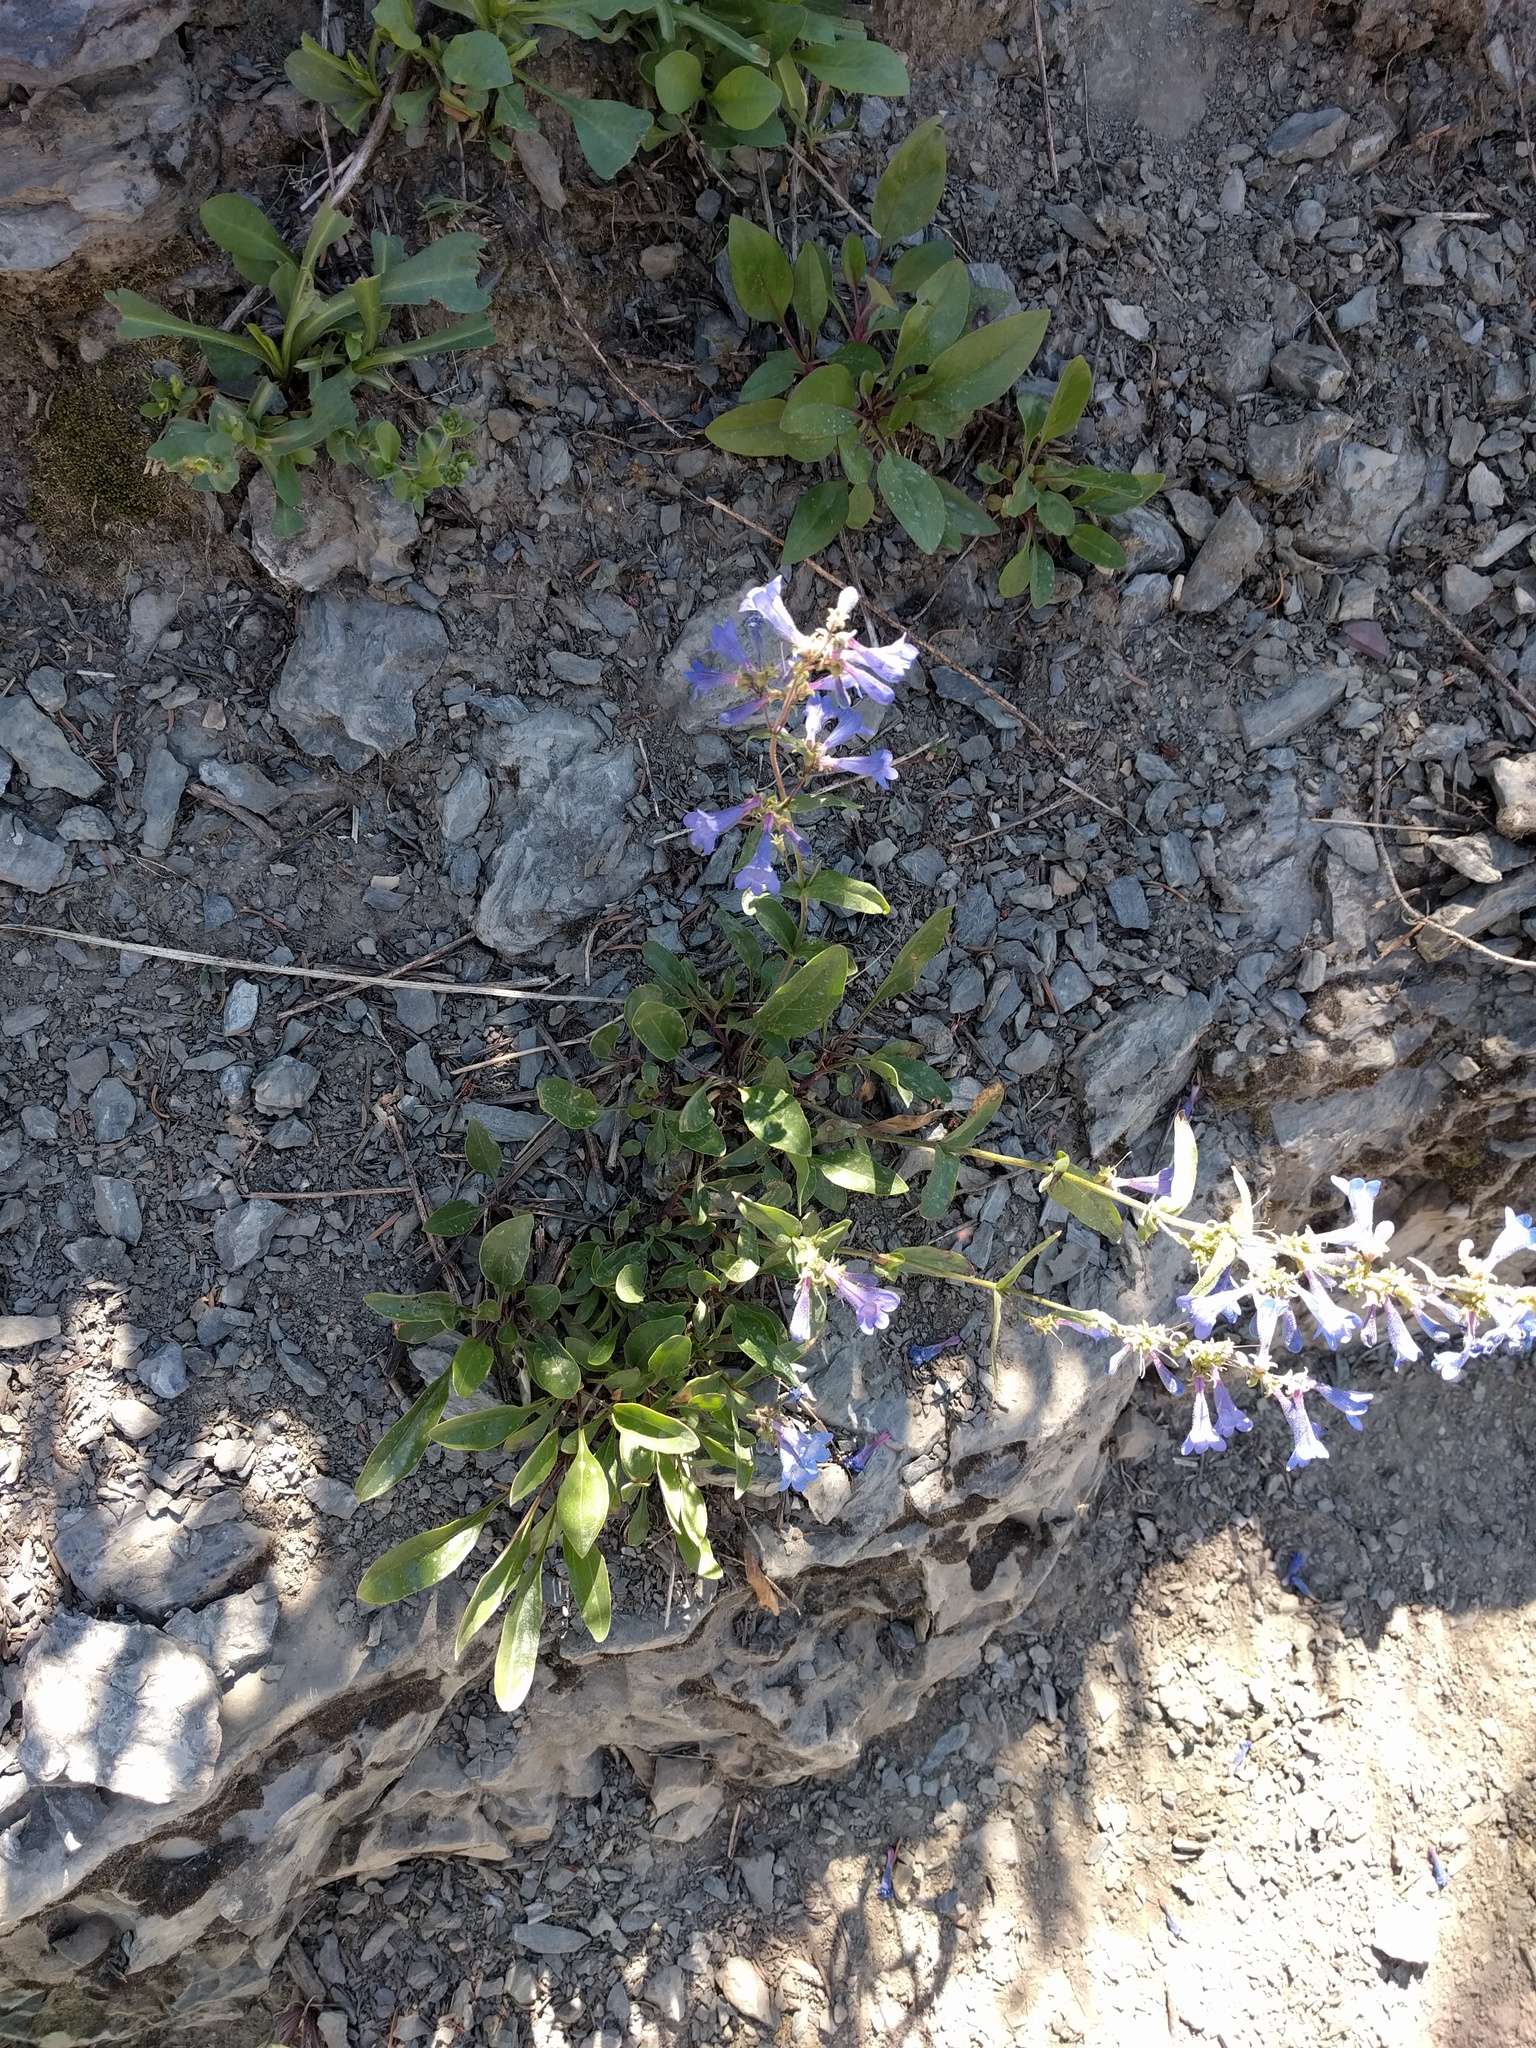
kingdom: Plantae
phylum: Tracheophyta
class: Magnoliopsida
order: Lamiales
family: Plantaginaceae
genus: Penstemon
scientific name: Penstemon albertinus
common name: Alberta beardtongue
